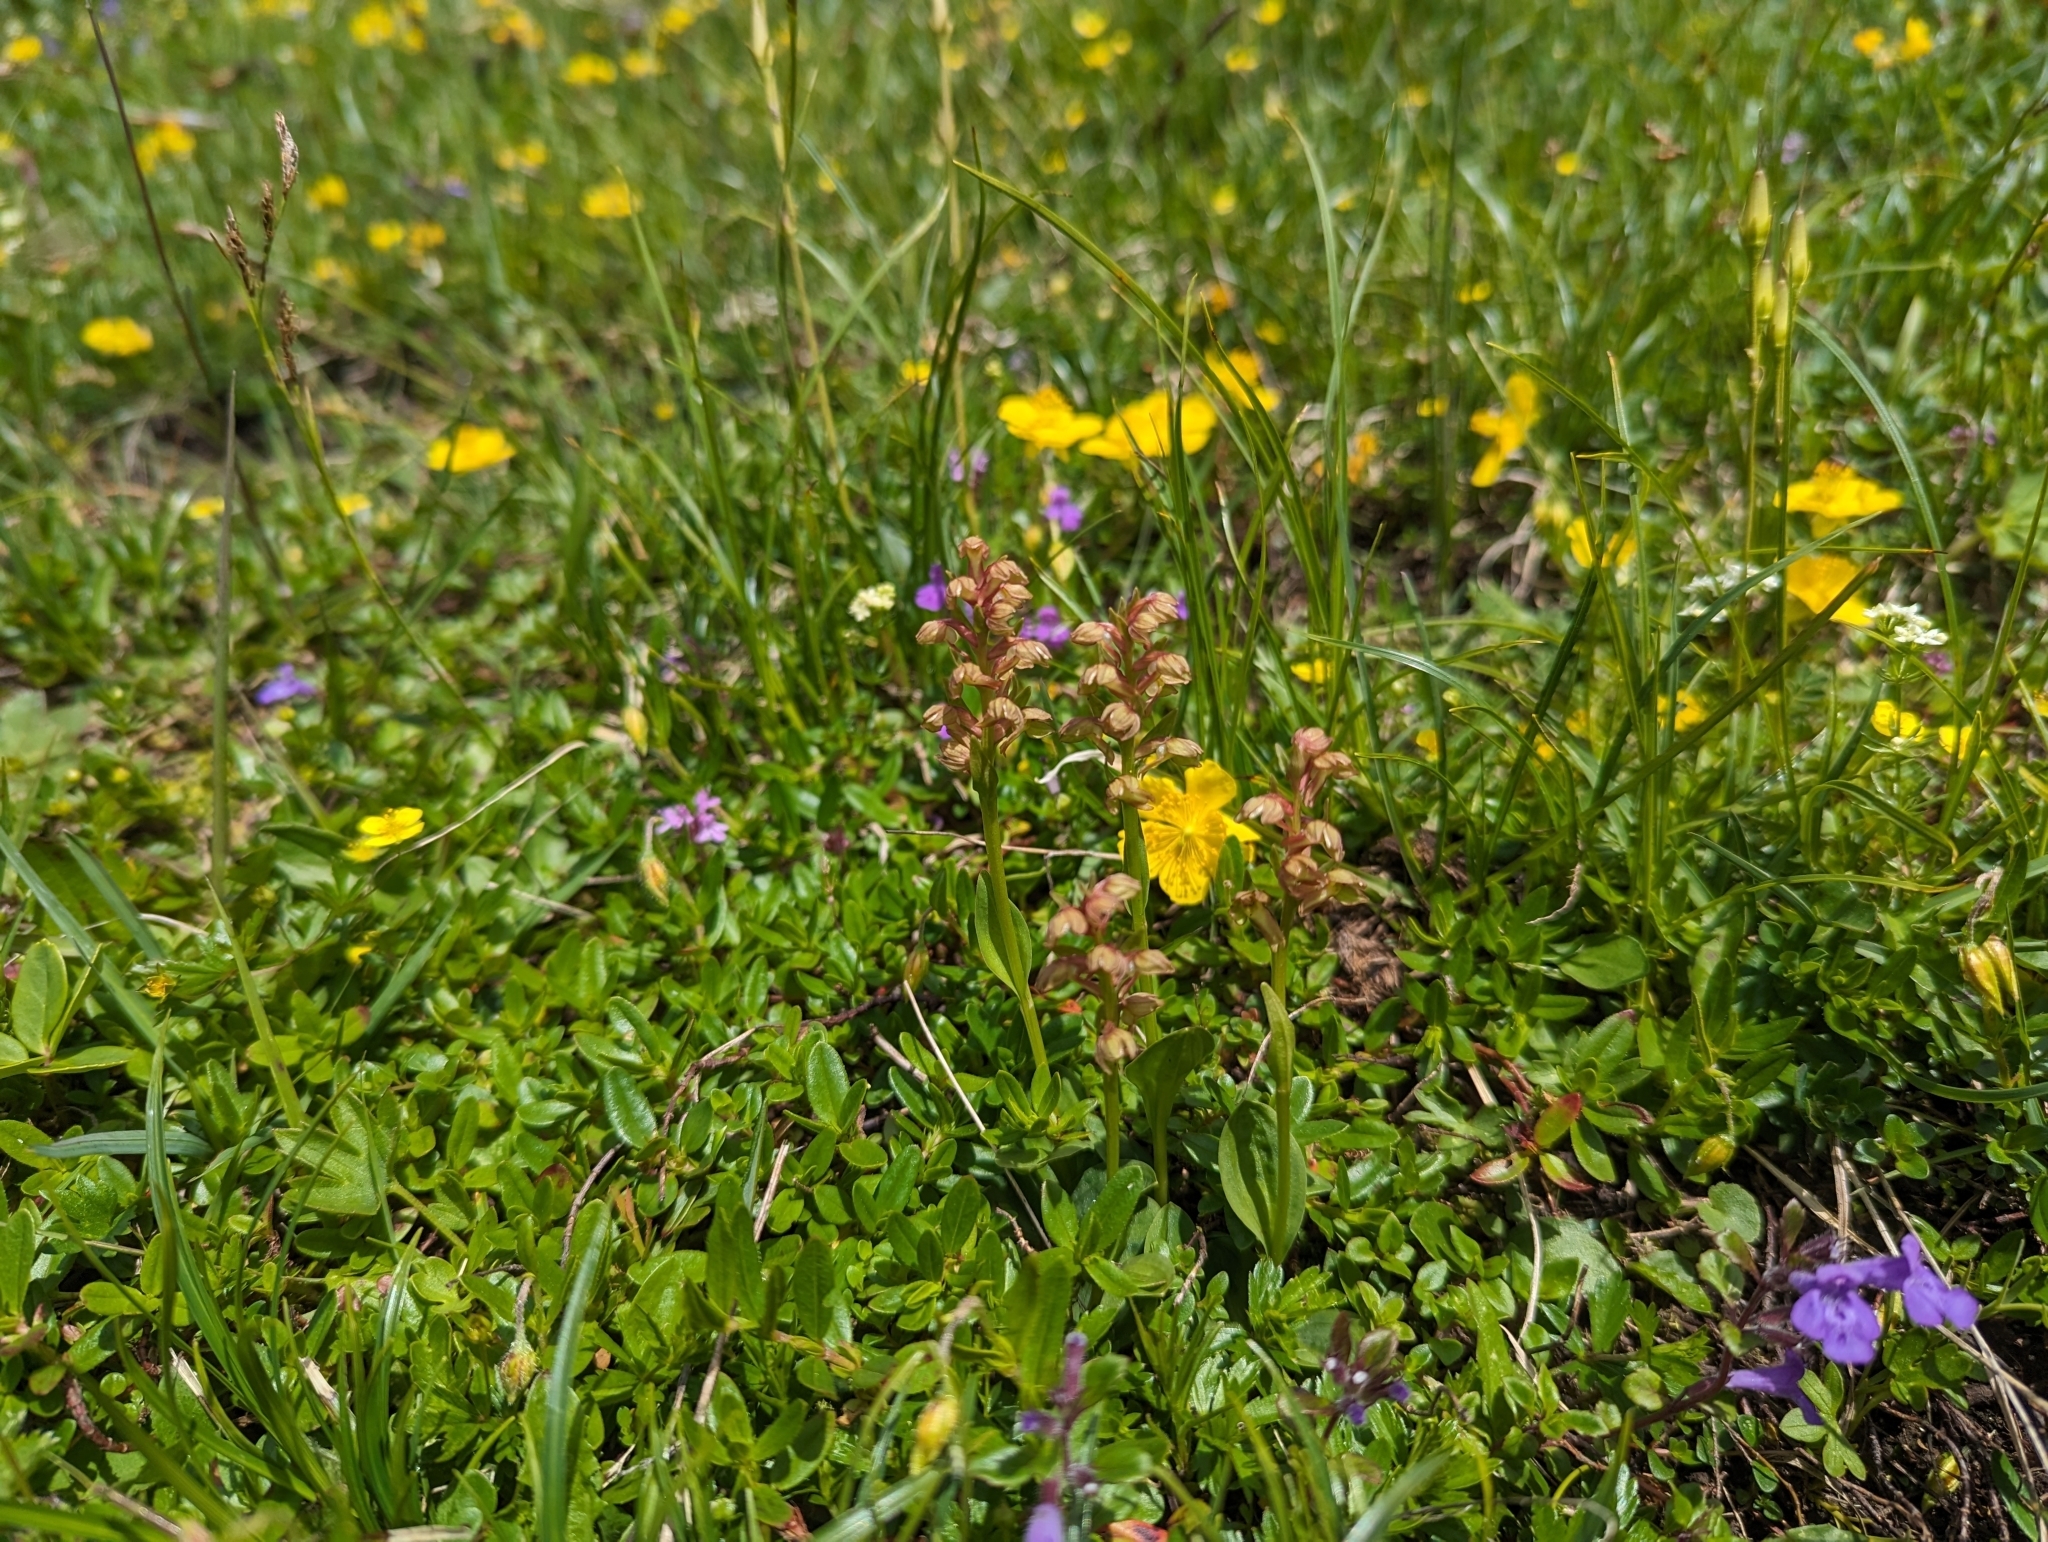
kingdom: Plantae
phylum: Tracheophyta
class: Liliopsida
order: Asparagales
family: Orchidaceae
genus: Dactylorhiza
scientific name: Dactylorhiza viridis
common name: Longbract frog orchid
